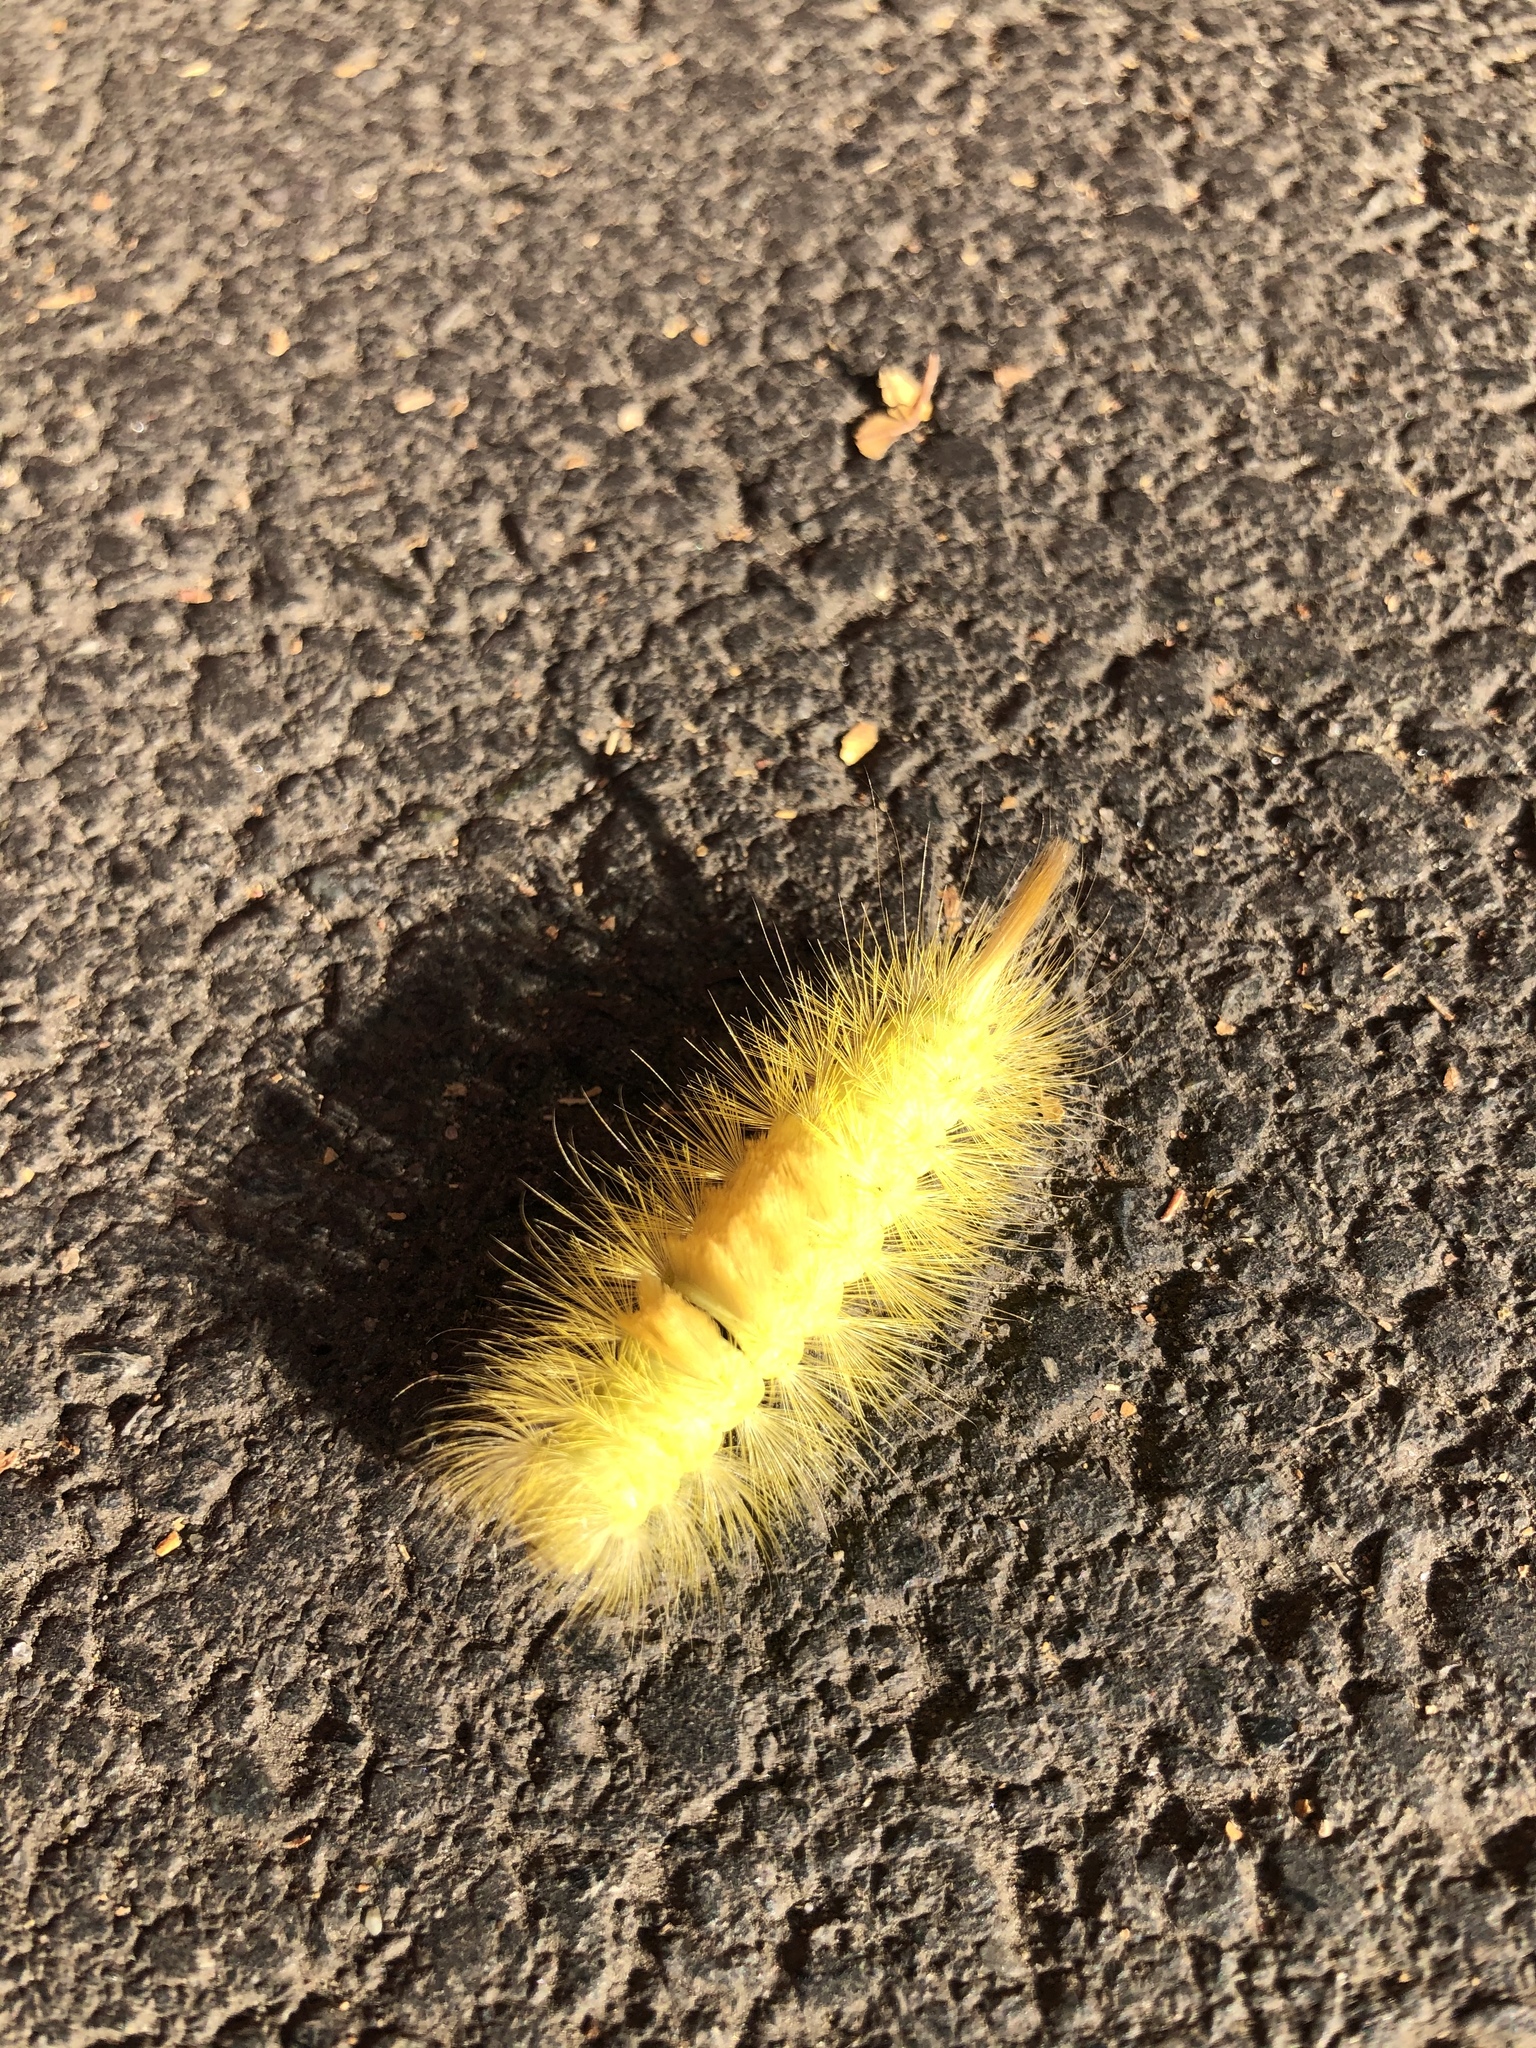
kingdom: Animalia
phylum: Arthropoda
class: Insecta
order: Lepidoptera
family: Erebidae
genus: Calliteara
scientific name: Calliteara pudibunda
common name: Pale tussock
